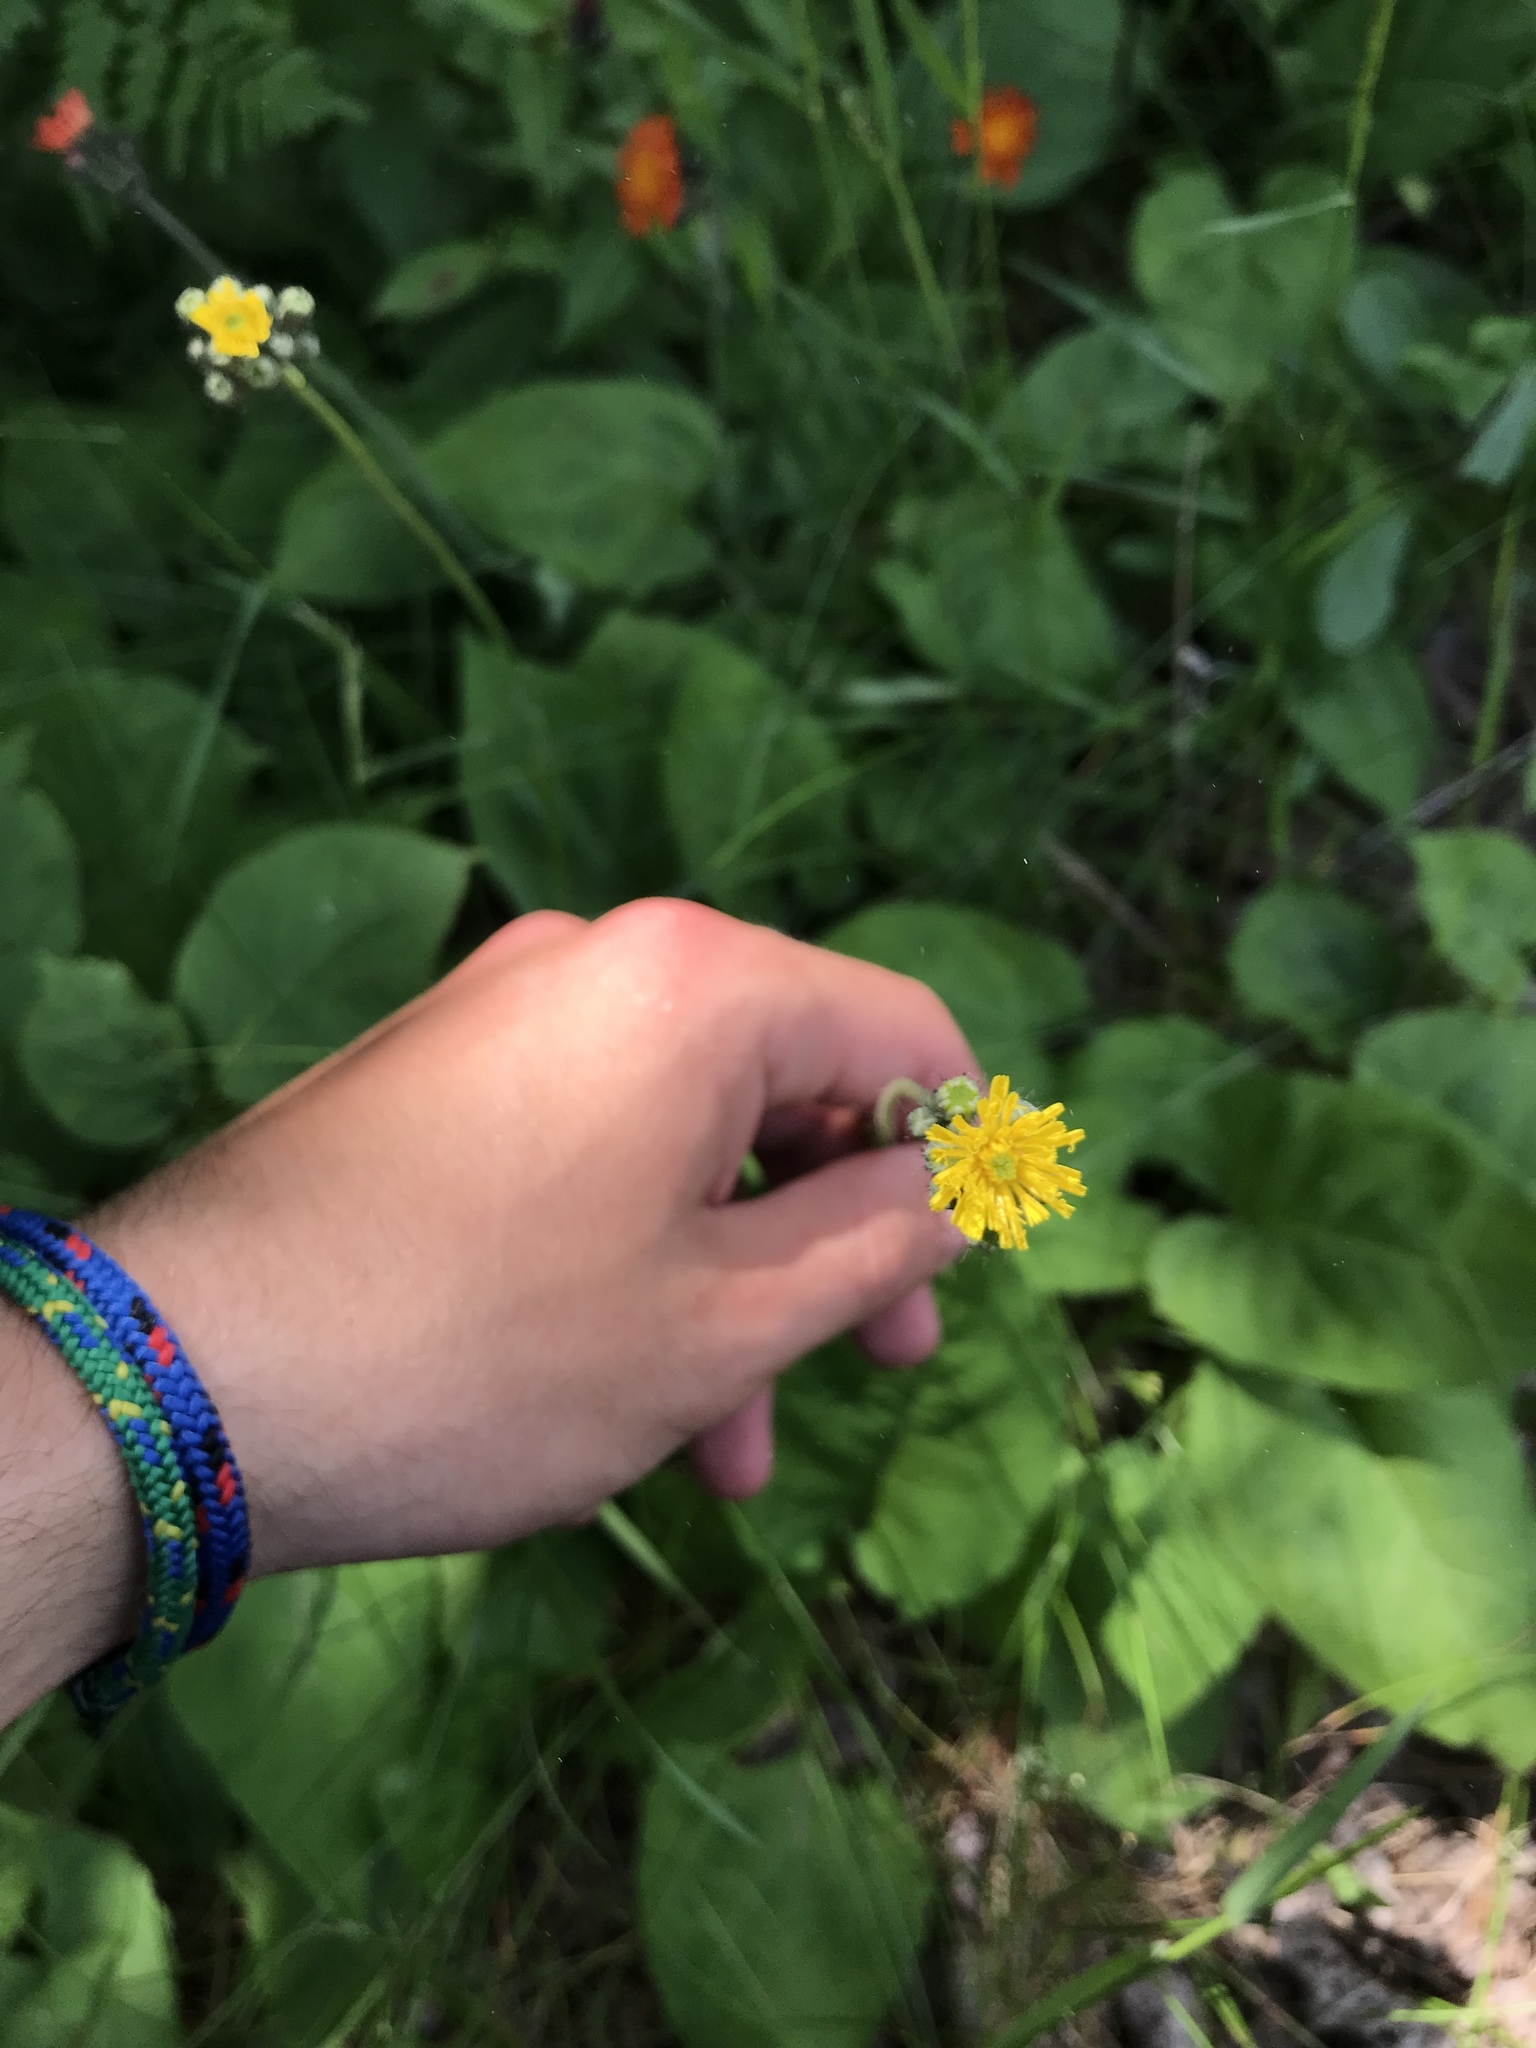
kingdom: Plantae
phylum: Tracheophyta
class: Magnoliopsida
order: Asterales
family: Asteraceae
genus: Pilosella
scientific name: Pilosella caespitosa
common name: Yellow fox-and-cubs
